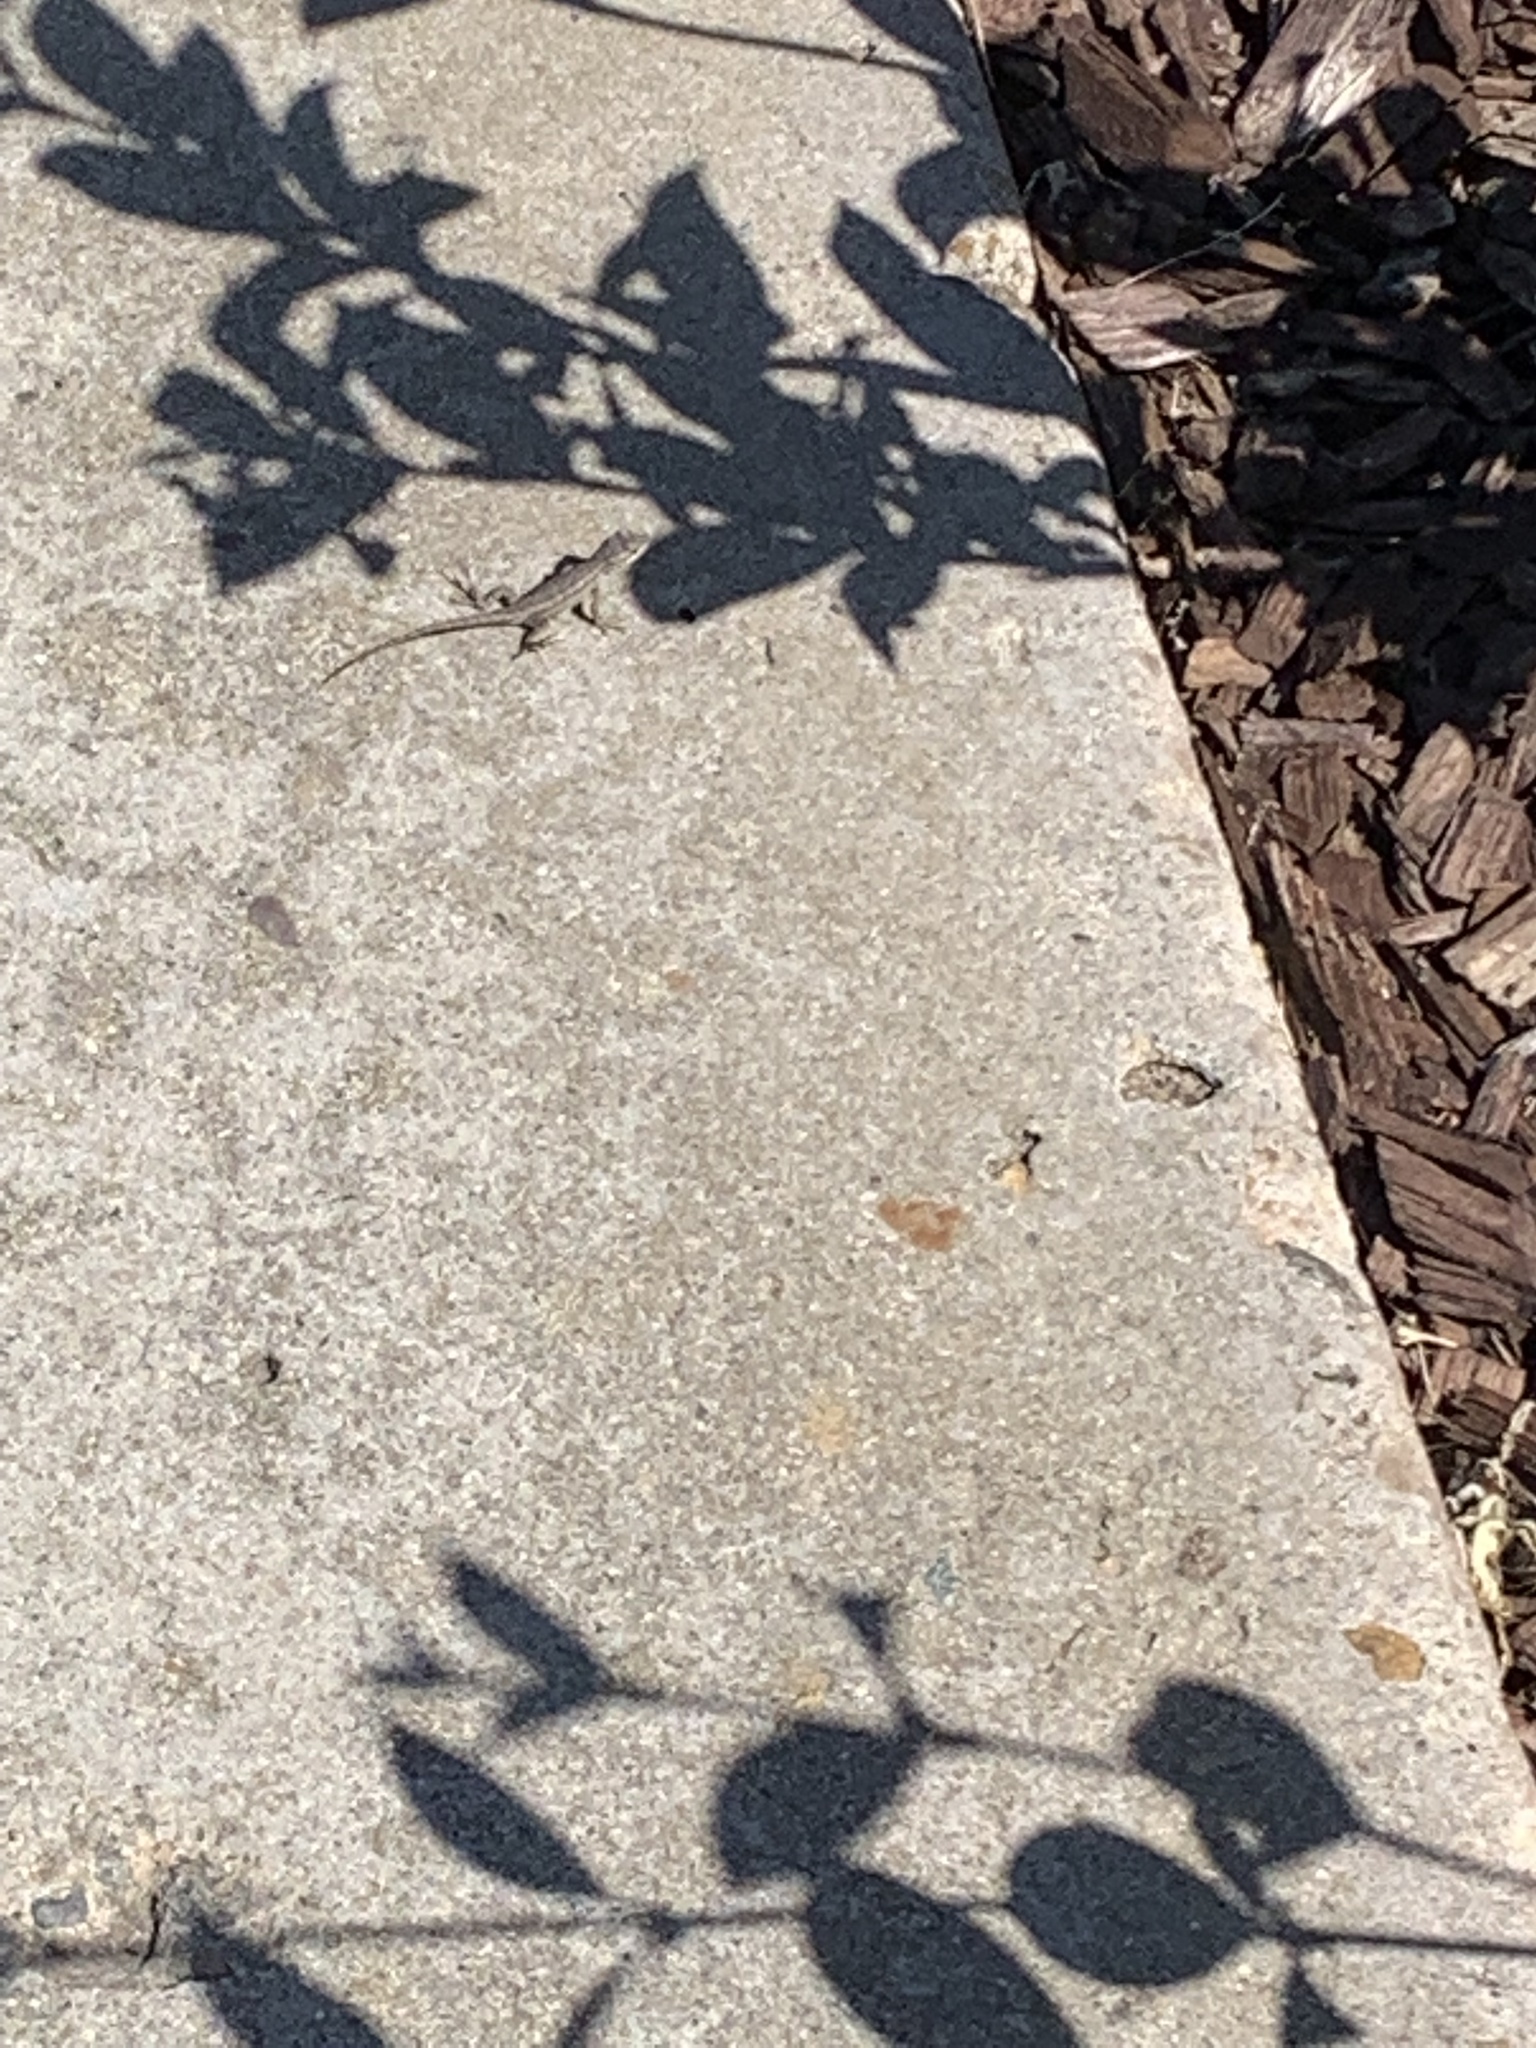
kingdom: Animalia
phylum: Chordata
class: Squamata
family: Phrynosomatidae
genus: Sceloporus
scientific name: Sceloporus occidentalis
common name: Western fence lizard
